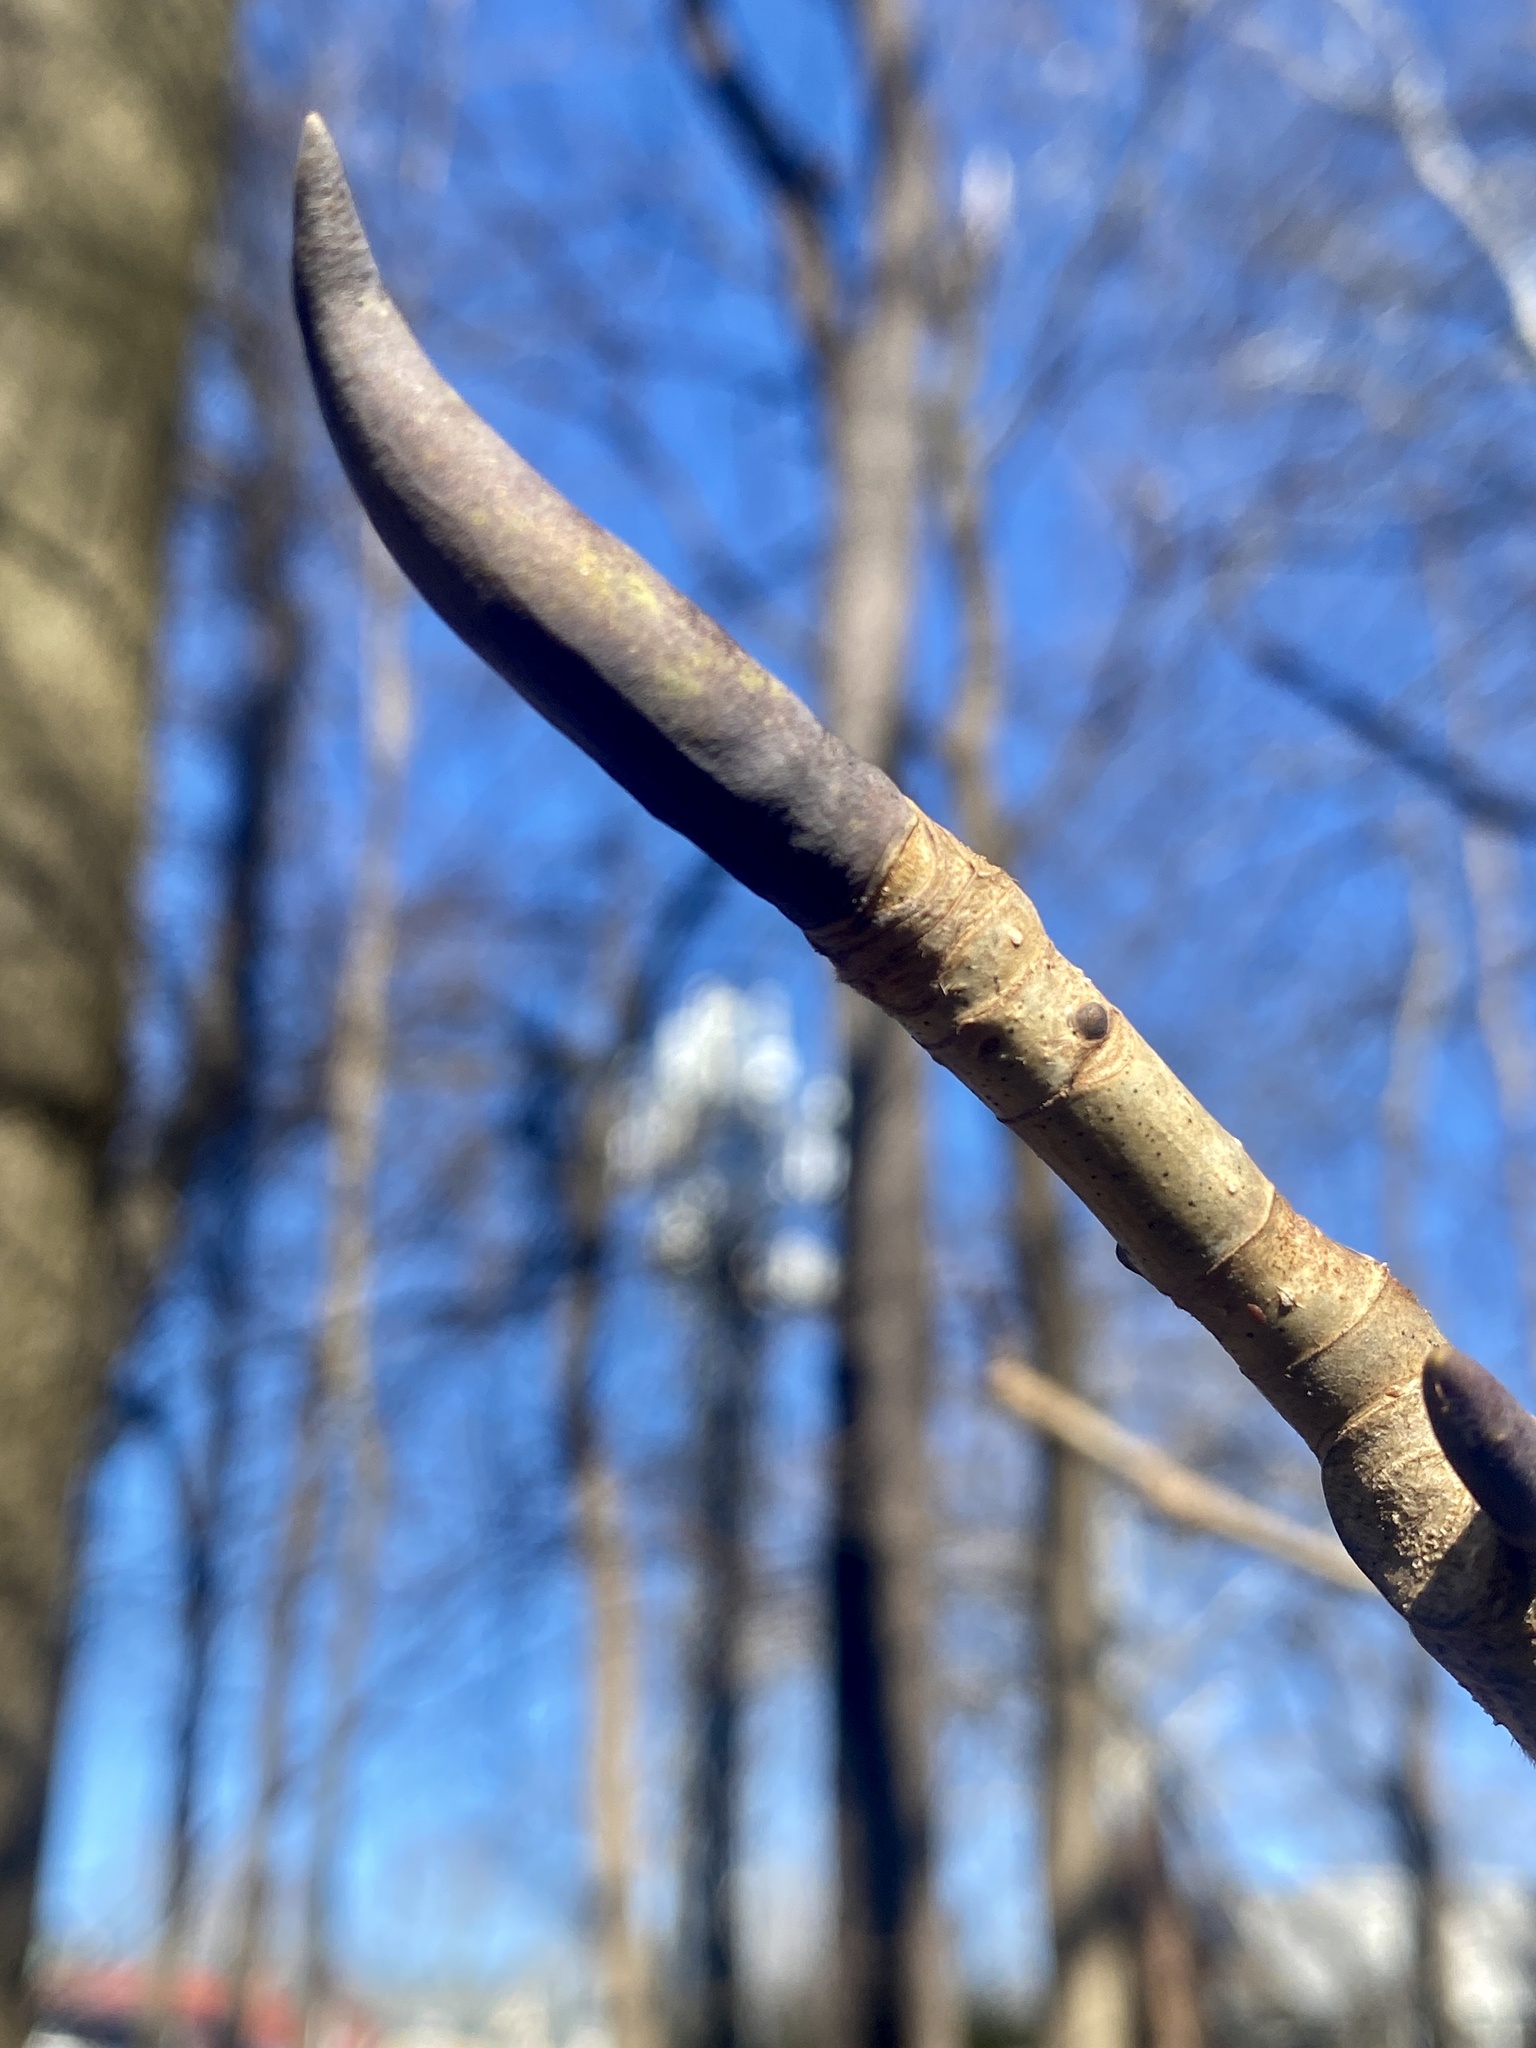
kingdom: Plantae
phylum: Tracheophyta
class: Magnoliopsida
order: Magnoliales
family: Magnoliaceae
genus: Magnolia
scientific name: Magnolia tripetala
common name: Umbrella magnolia
